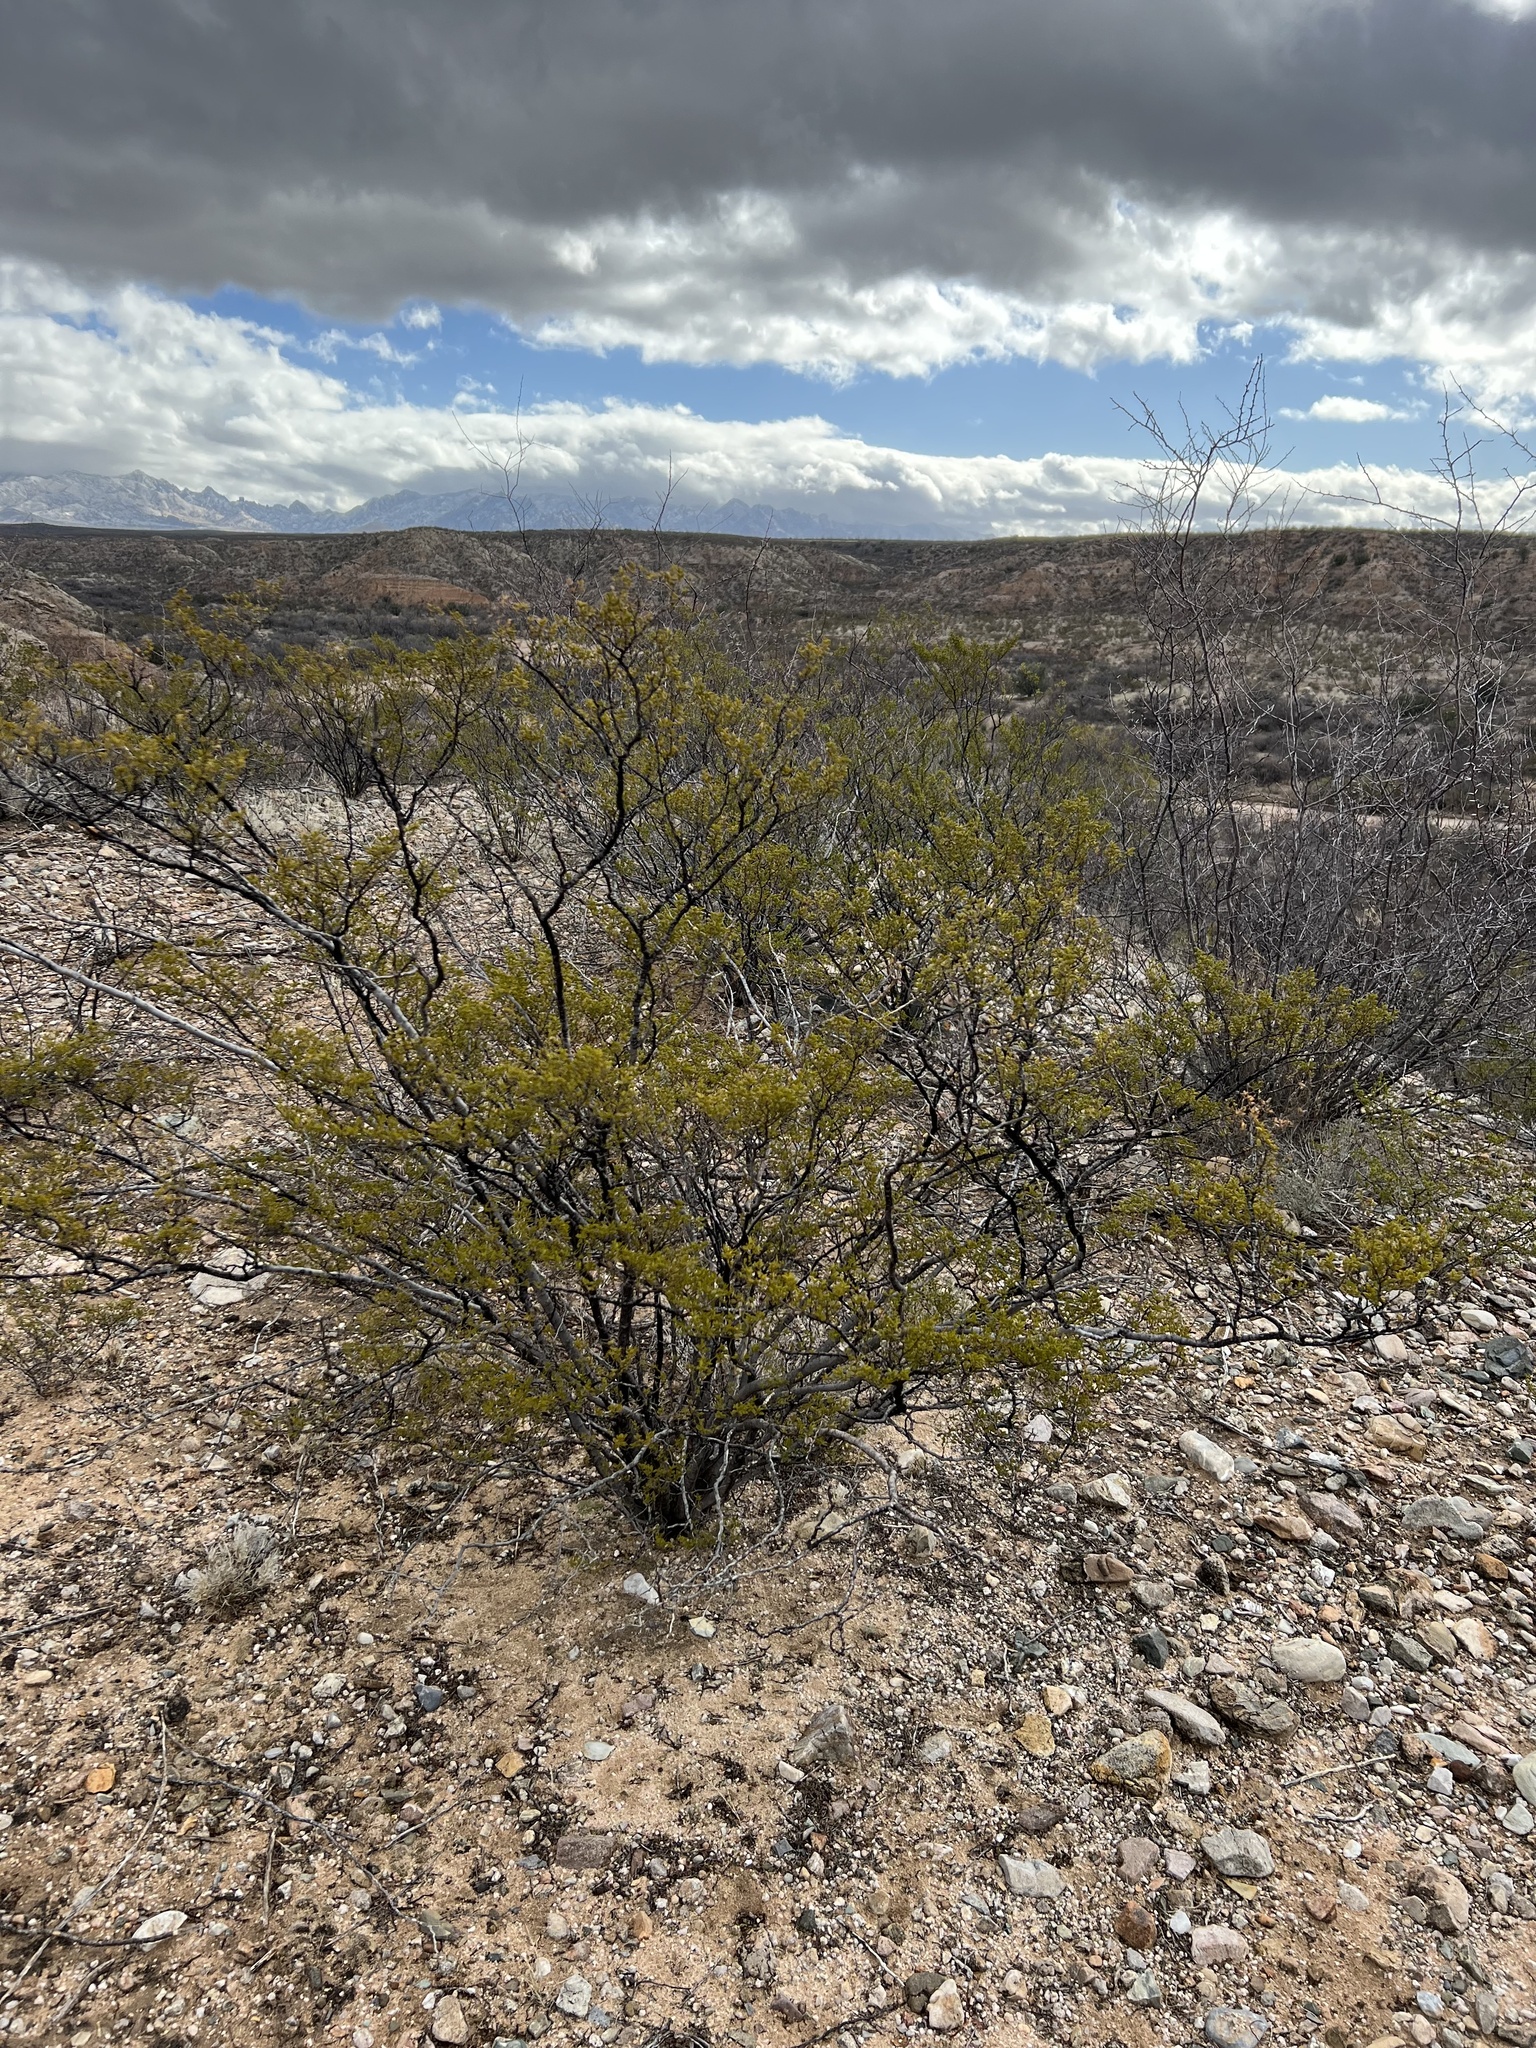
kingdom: Plantae
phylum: Tracheophyta
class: Magnoliopsida
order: Zygophyllales
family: Zygophyllaceae
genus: Larrea
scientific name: Larrea tridentata
